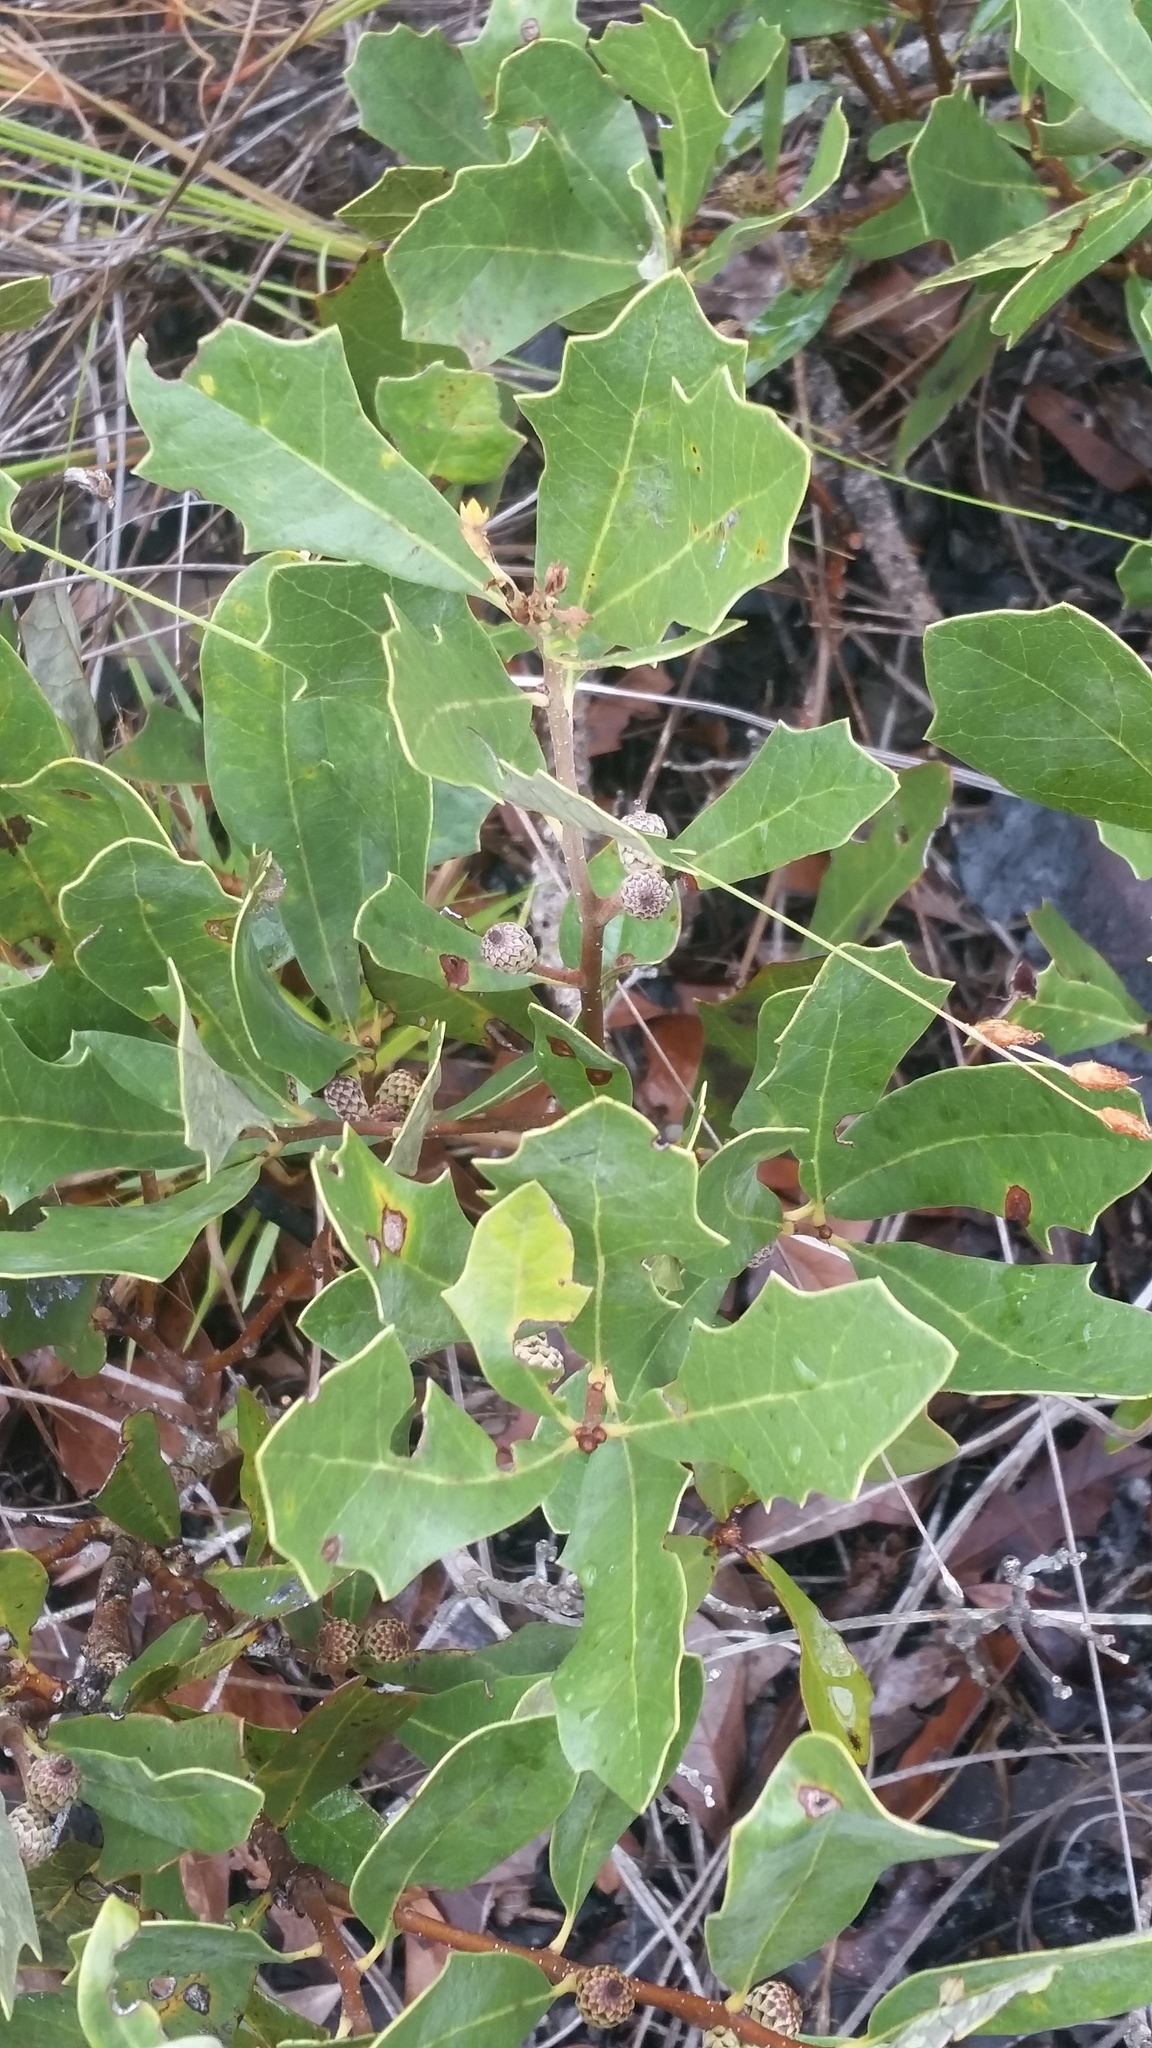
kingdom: Plantae
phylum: Tracheophyta
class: Magnoliopsida
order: Fagales
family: Fagaceae
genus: Quercus
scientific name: Quercus minima
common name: Dwarf live oak
